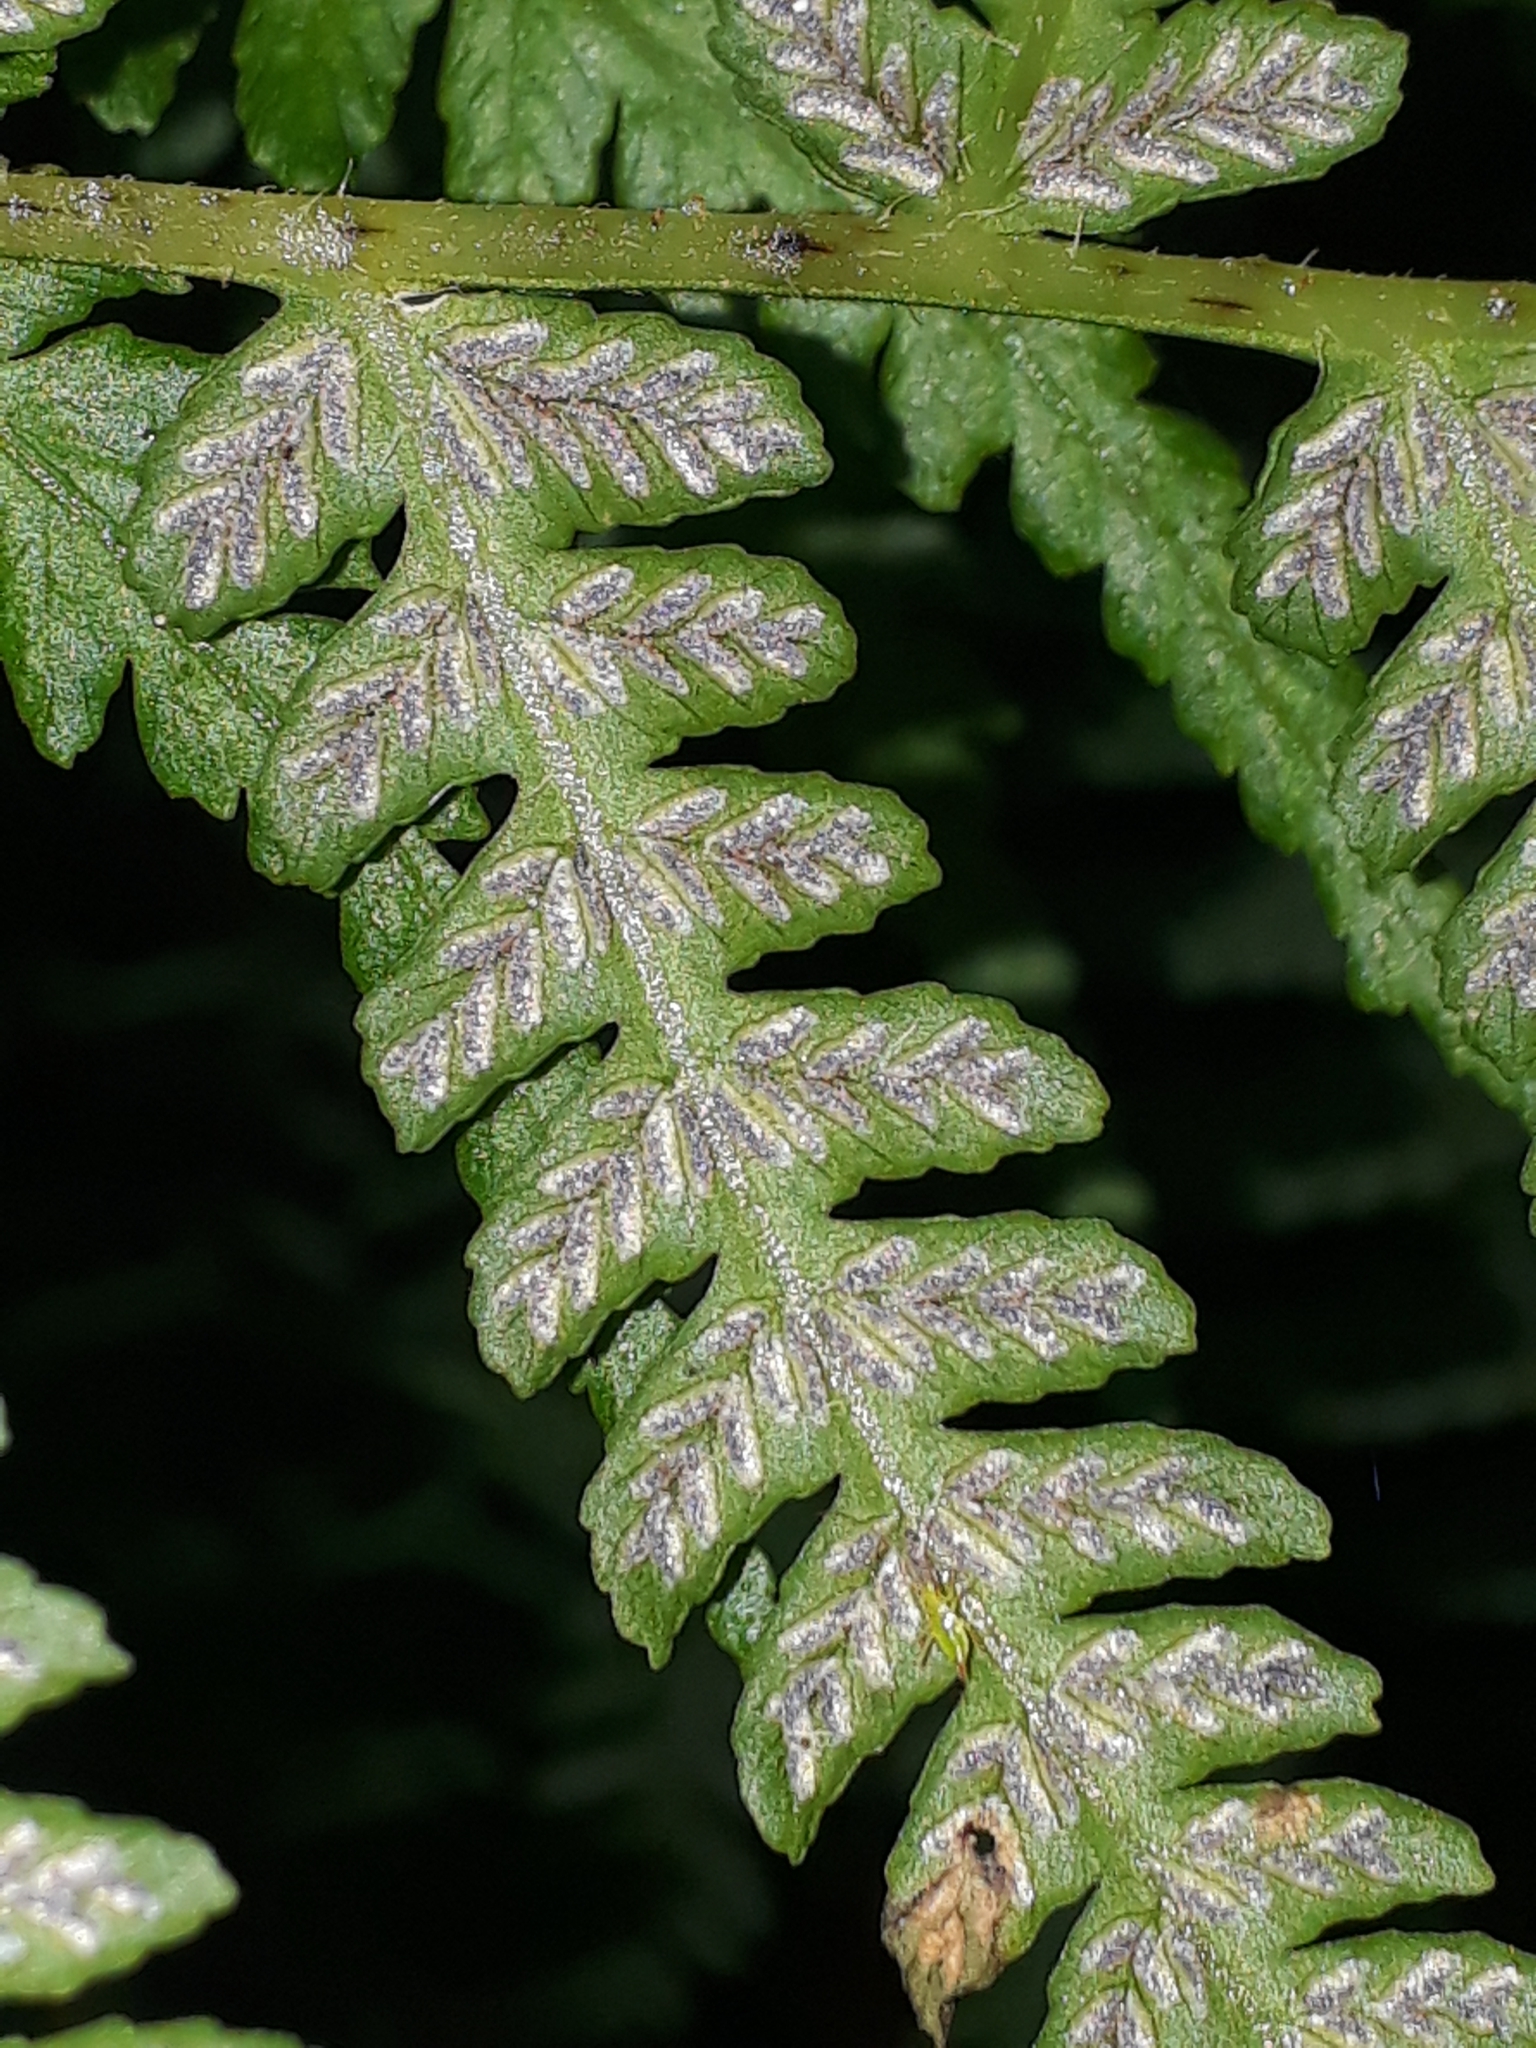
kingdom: Plantae
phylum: Tracheophyta
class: Polypodiopsida
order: Polypodiales
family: Athyriaceae
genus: Deparia
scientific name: Deparia petersenii
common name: Japanese false spleenwort
